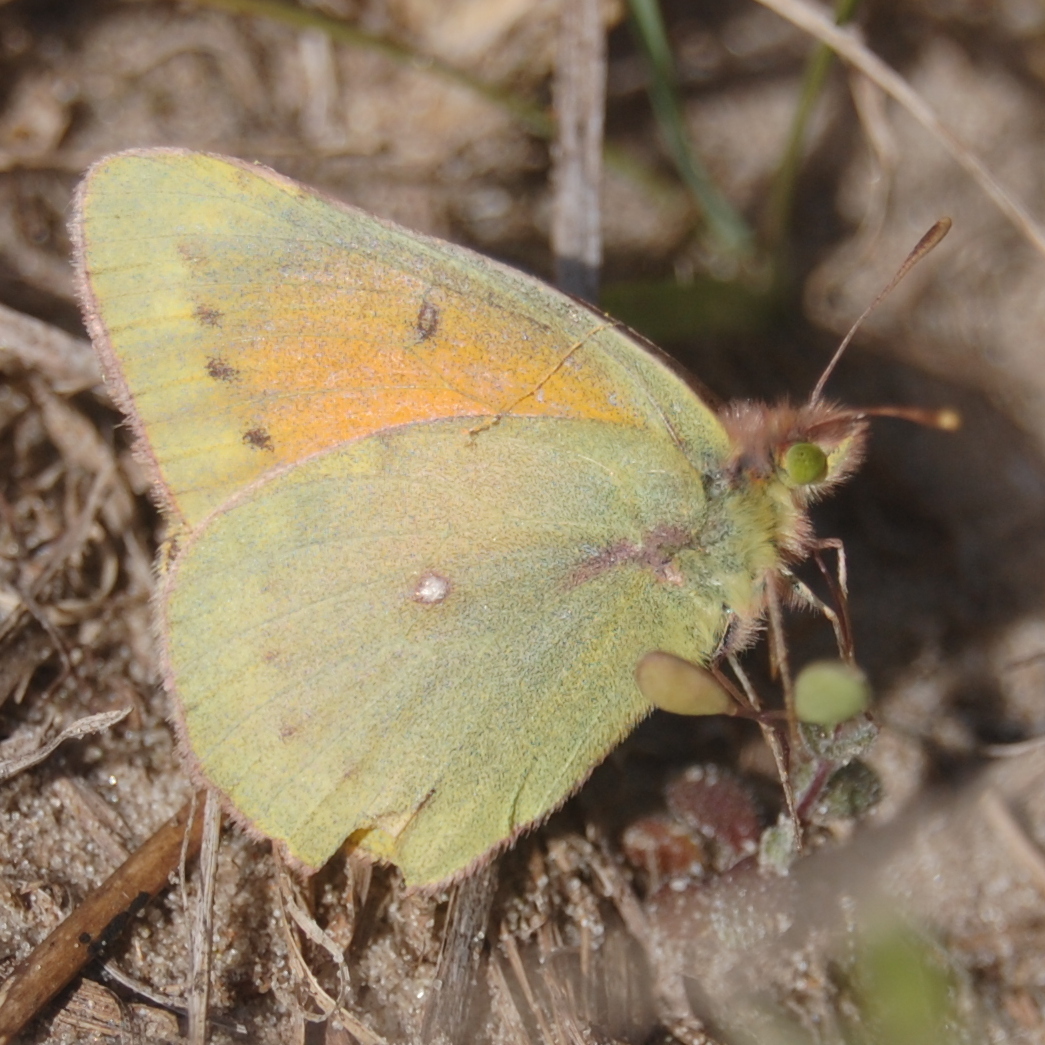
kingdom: Animalia
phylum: Arthropoda
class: Insecta
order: Lepidoptera
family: Pieridae
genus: Colias
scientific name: Colias lesbia
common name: Lesbia clouded yellow
